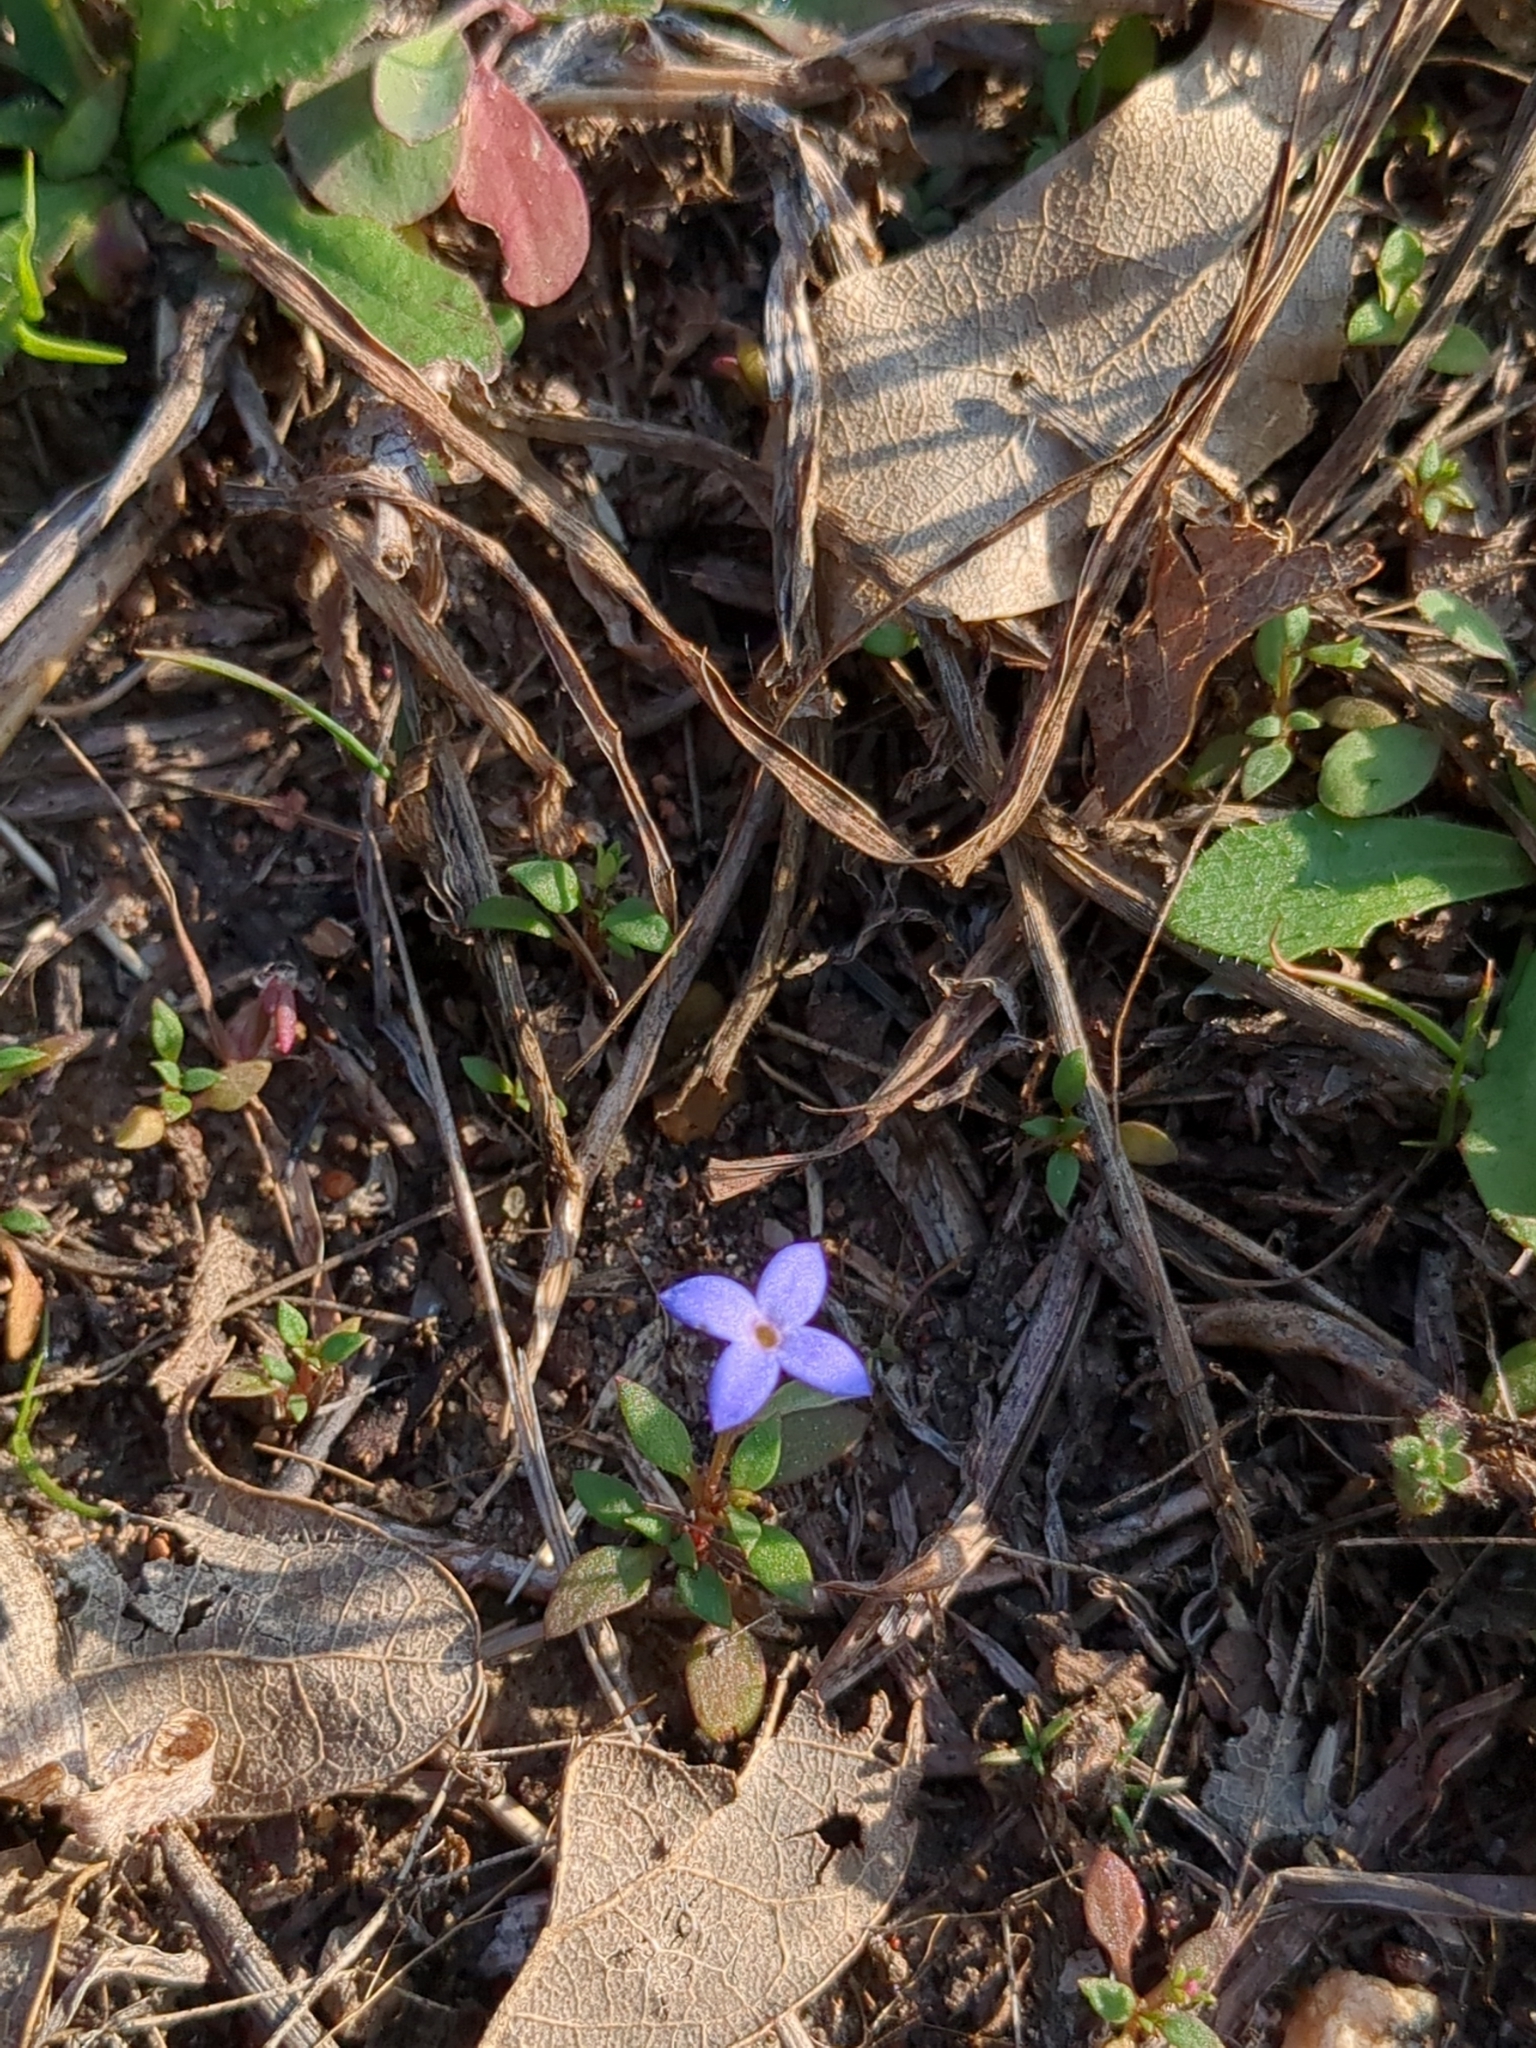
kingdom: Plantae
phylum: Tracheophyta
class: Magnoliopsida
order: Gentianales
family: Rubiaceae
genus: Houstonia
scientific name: Houstonia pusilla
